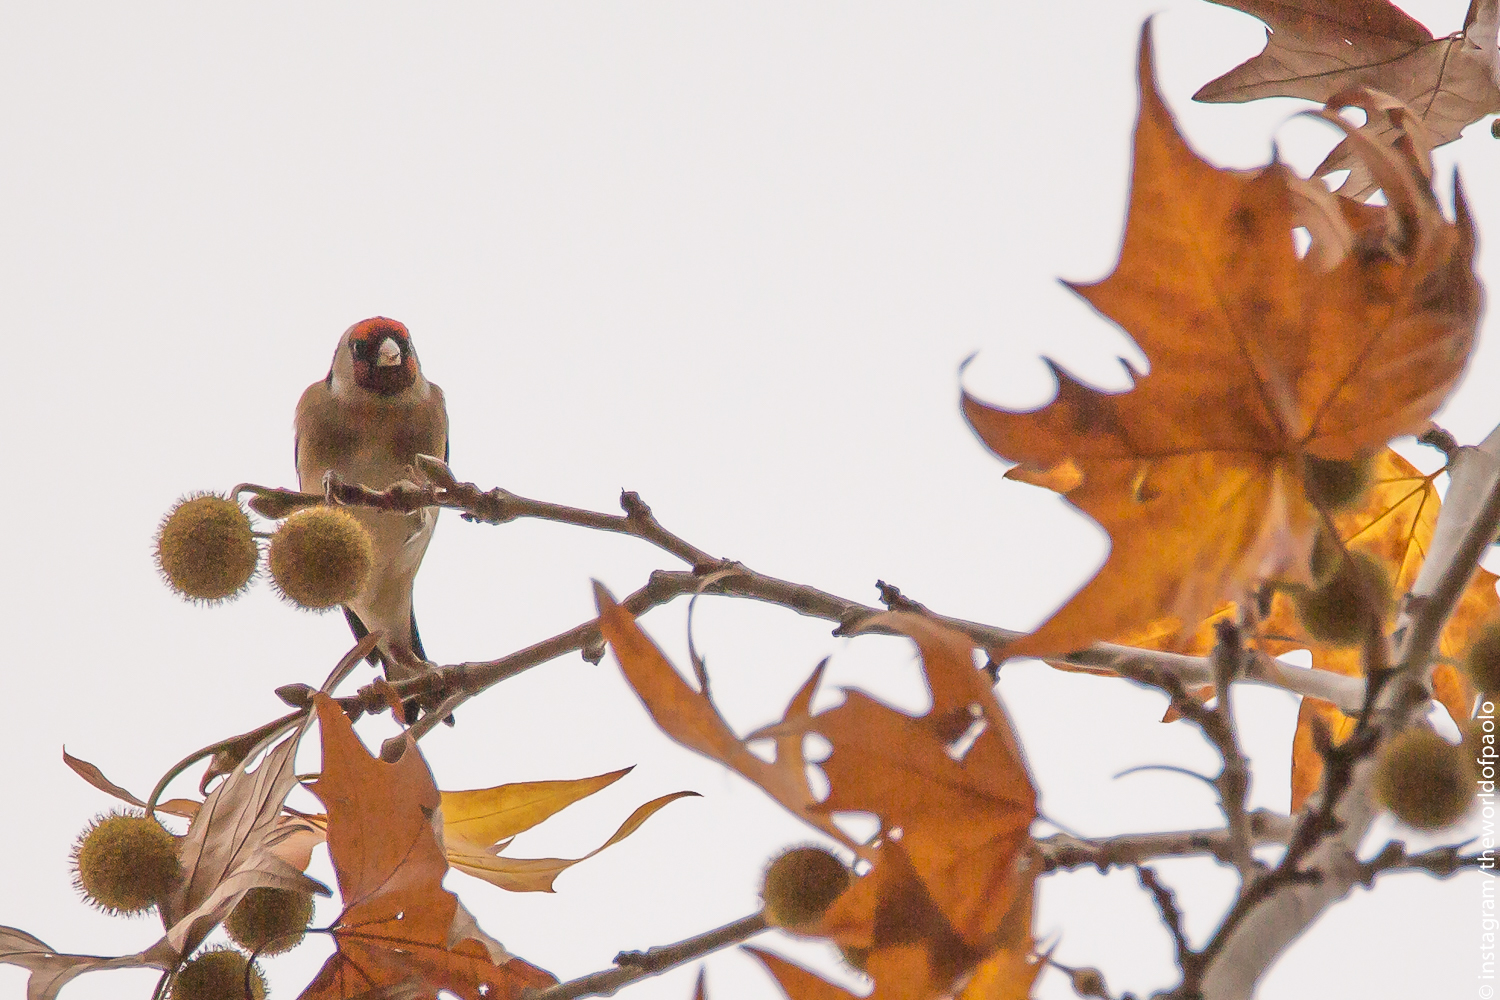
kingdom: Animalia
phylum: Chordata
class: Aves
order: Passeriformes
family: Fringillidae
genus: Carduelis
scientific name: Carduelis carduelis
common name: European goldfinch
